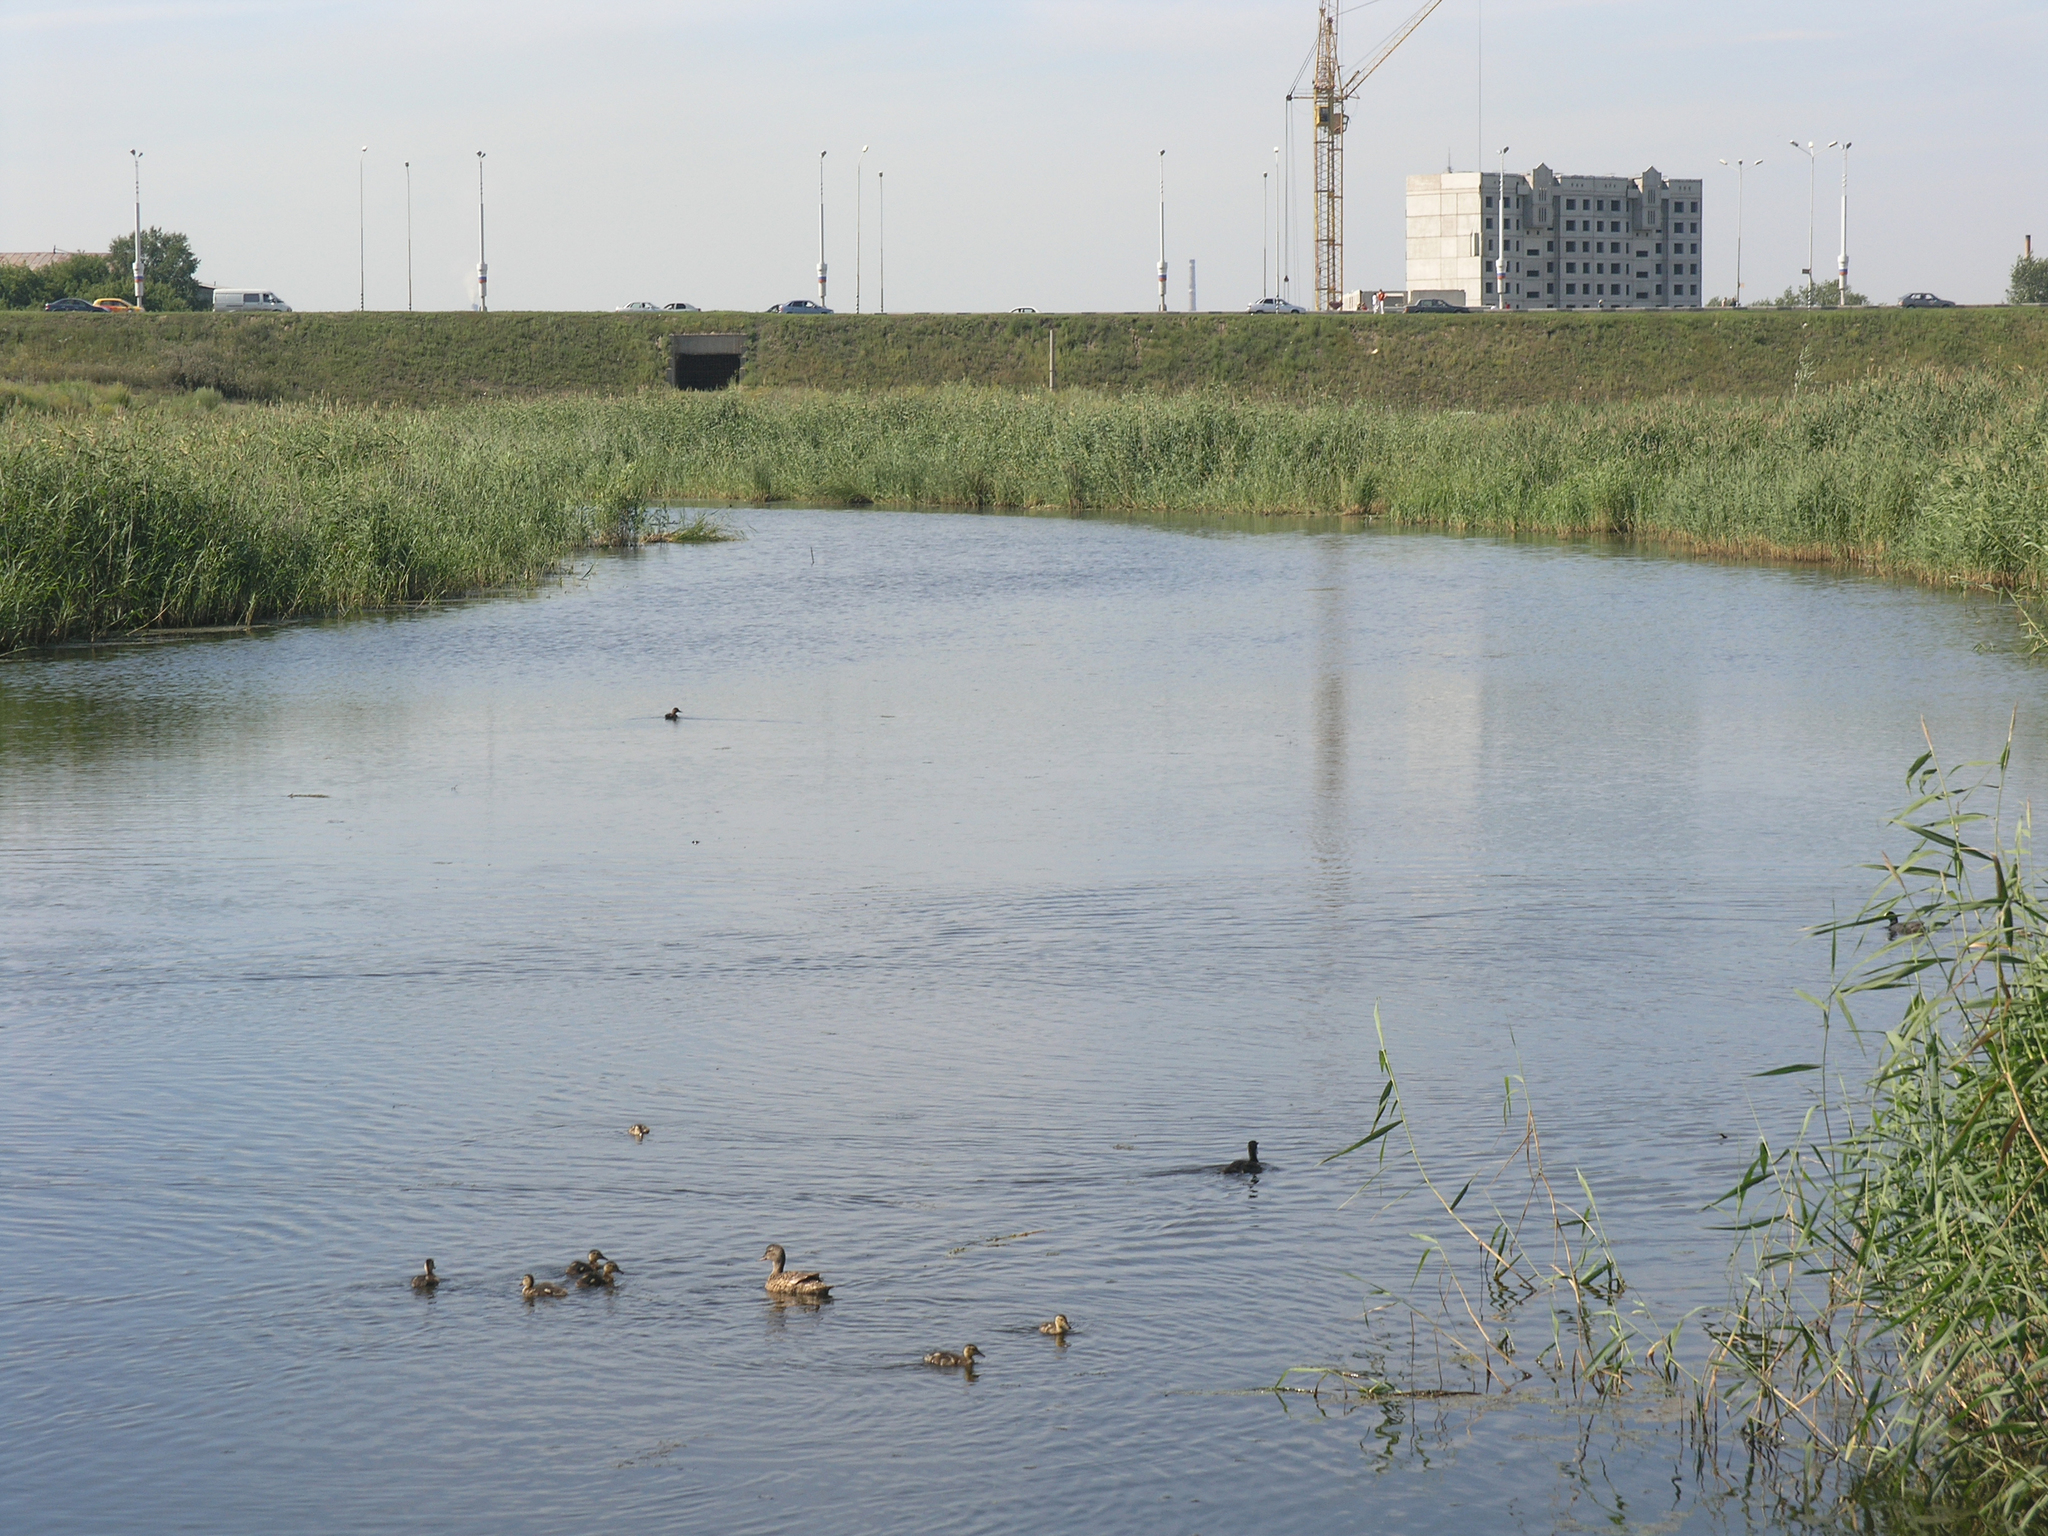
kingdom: Animalia
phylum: Chordata
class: Aves
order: Anseriformes
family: Anatidae
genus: Anas
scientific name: Anas platyrhynchos
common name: Mallard
